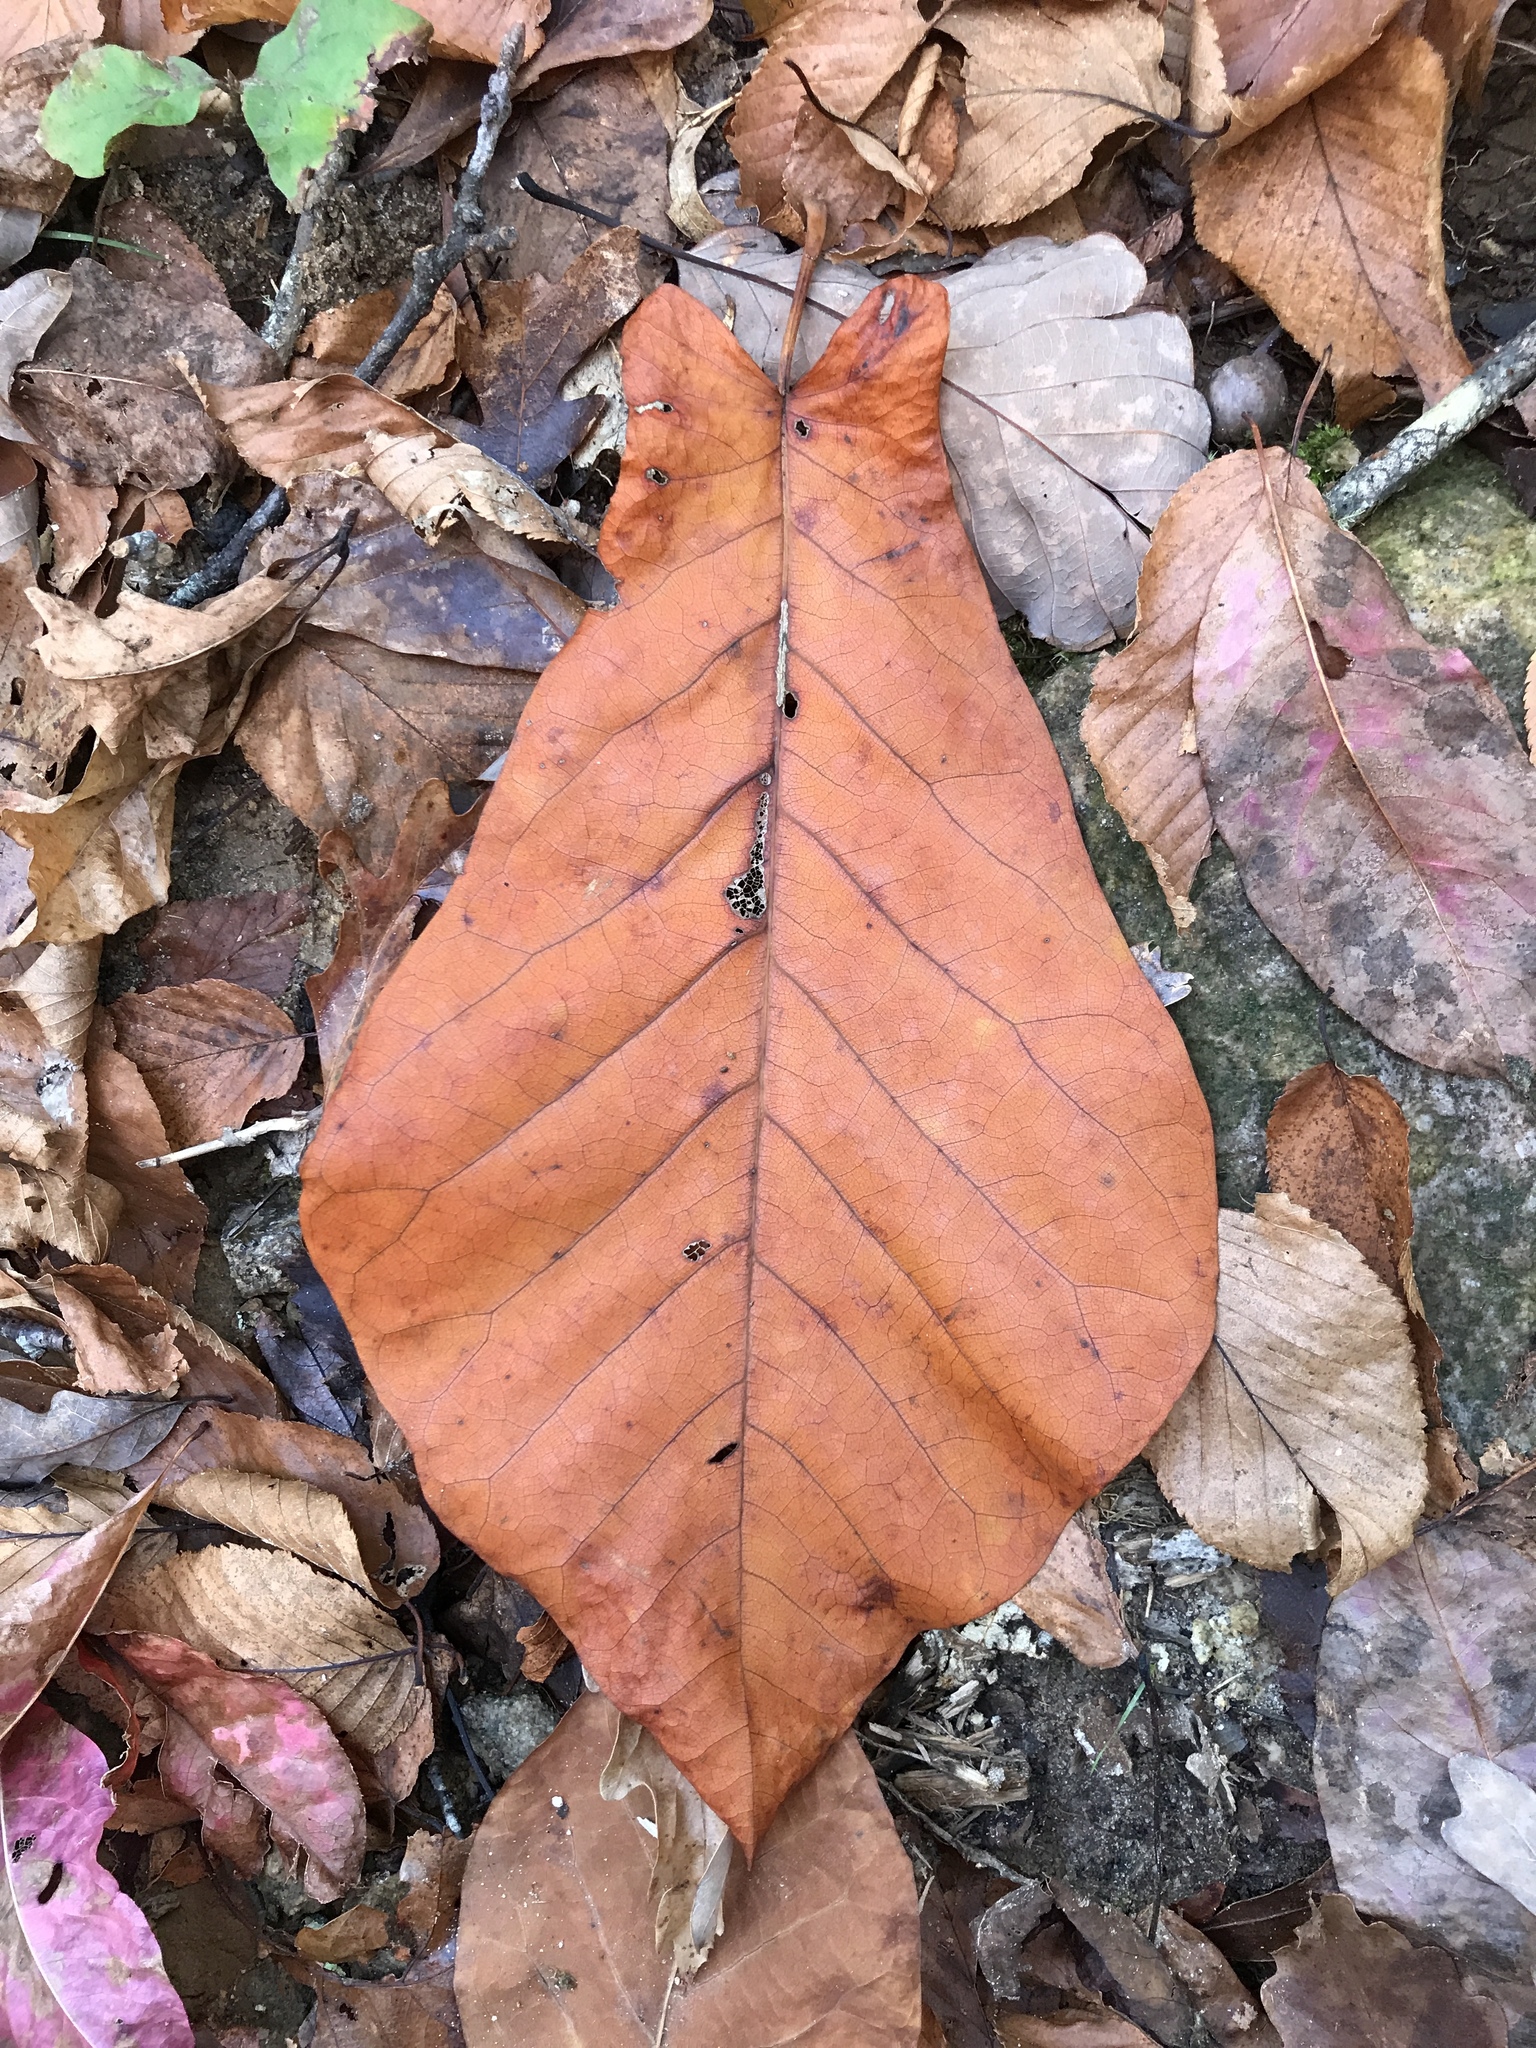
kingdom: Plantae
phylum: Tracheophyta
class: Magnoliopsida
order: Magnoliales
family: Magnoliaceae
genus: Magnolia
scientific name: Magnolia fraseri
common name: Fraser's magnolia
